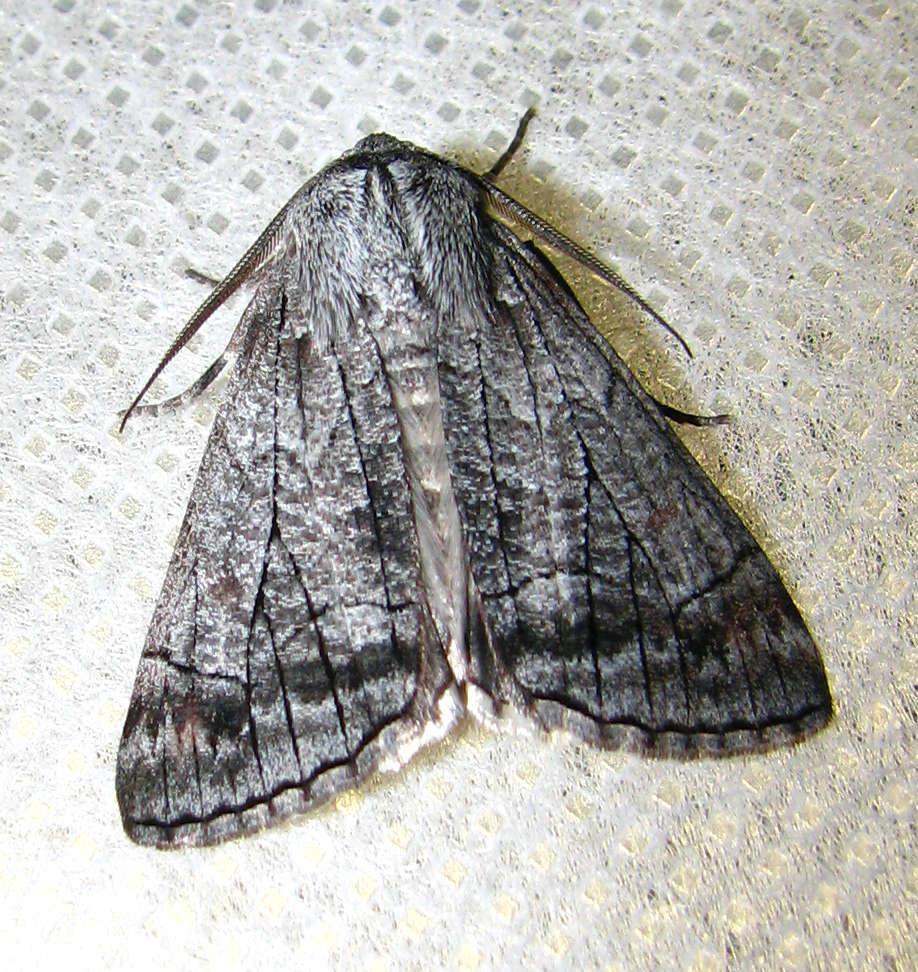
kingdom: Animalia
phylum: Arthropoda
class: Insecta
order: Lepidoptera
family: Geometridae
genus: Stibaractis
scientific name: Stibaractis melanotoxa
